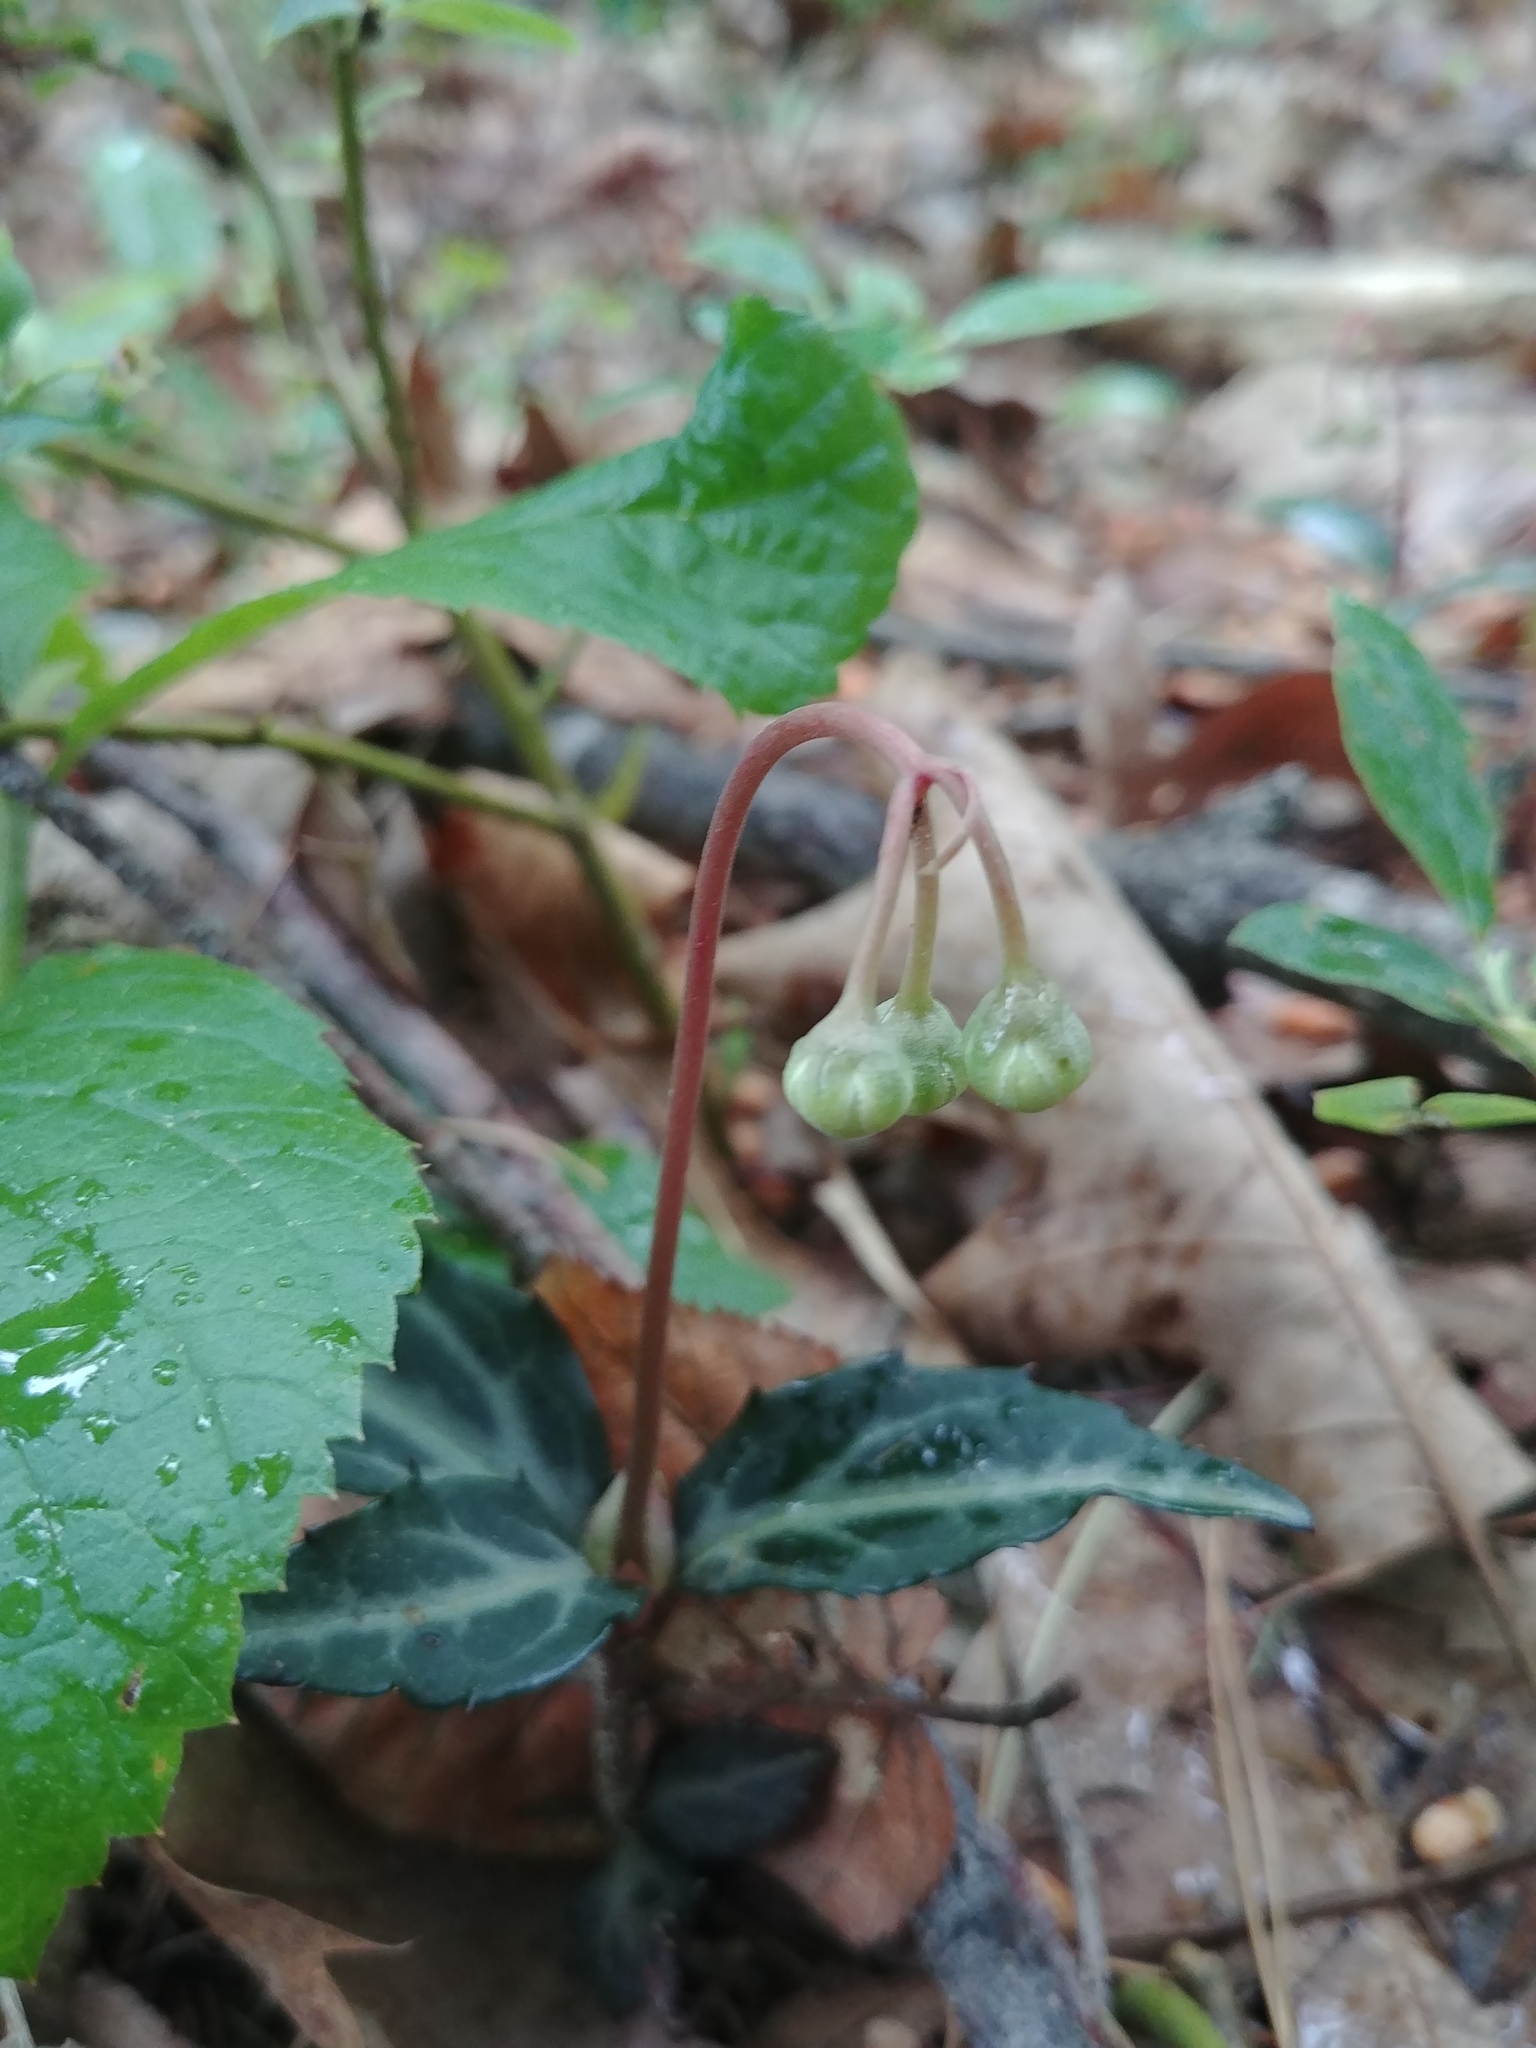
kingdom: Plantae
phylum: Tracheophyta
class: Magnoliopsida
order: Ericales
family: Ericaceae
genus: Chimaphila
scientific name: Chimaphila maculata
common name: Spotted pipsissewa
